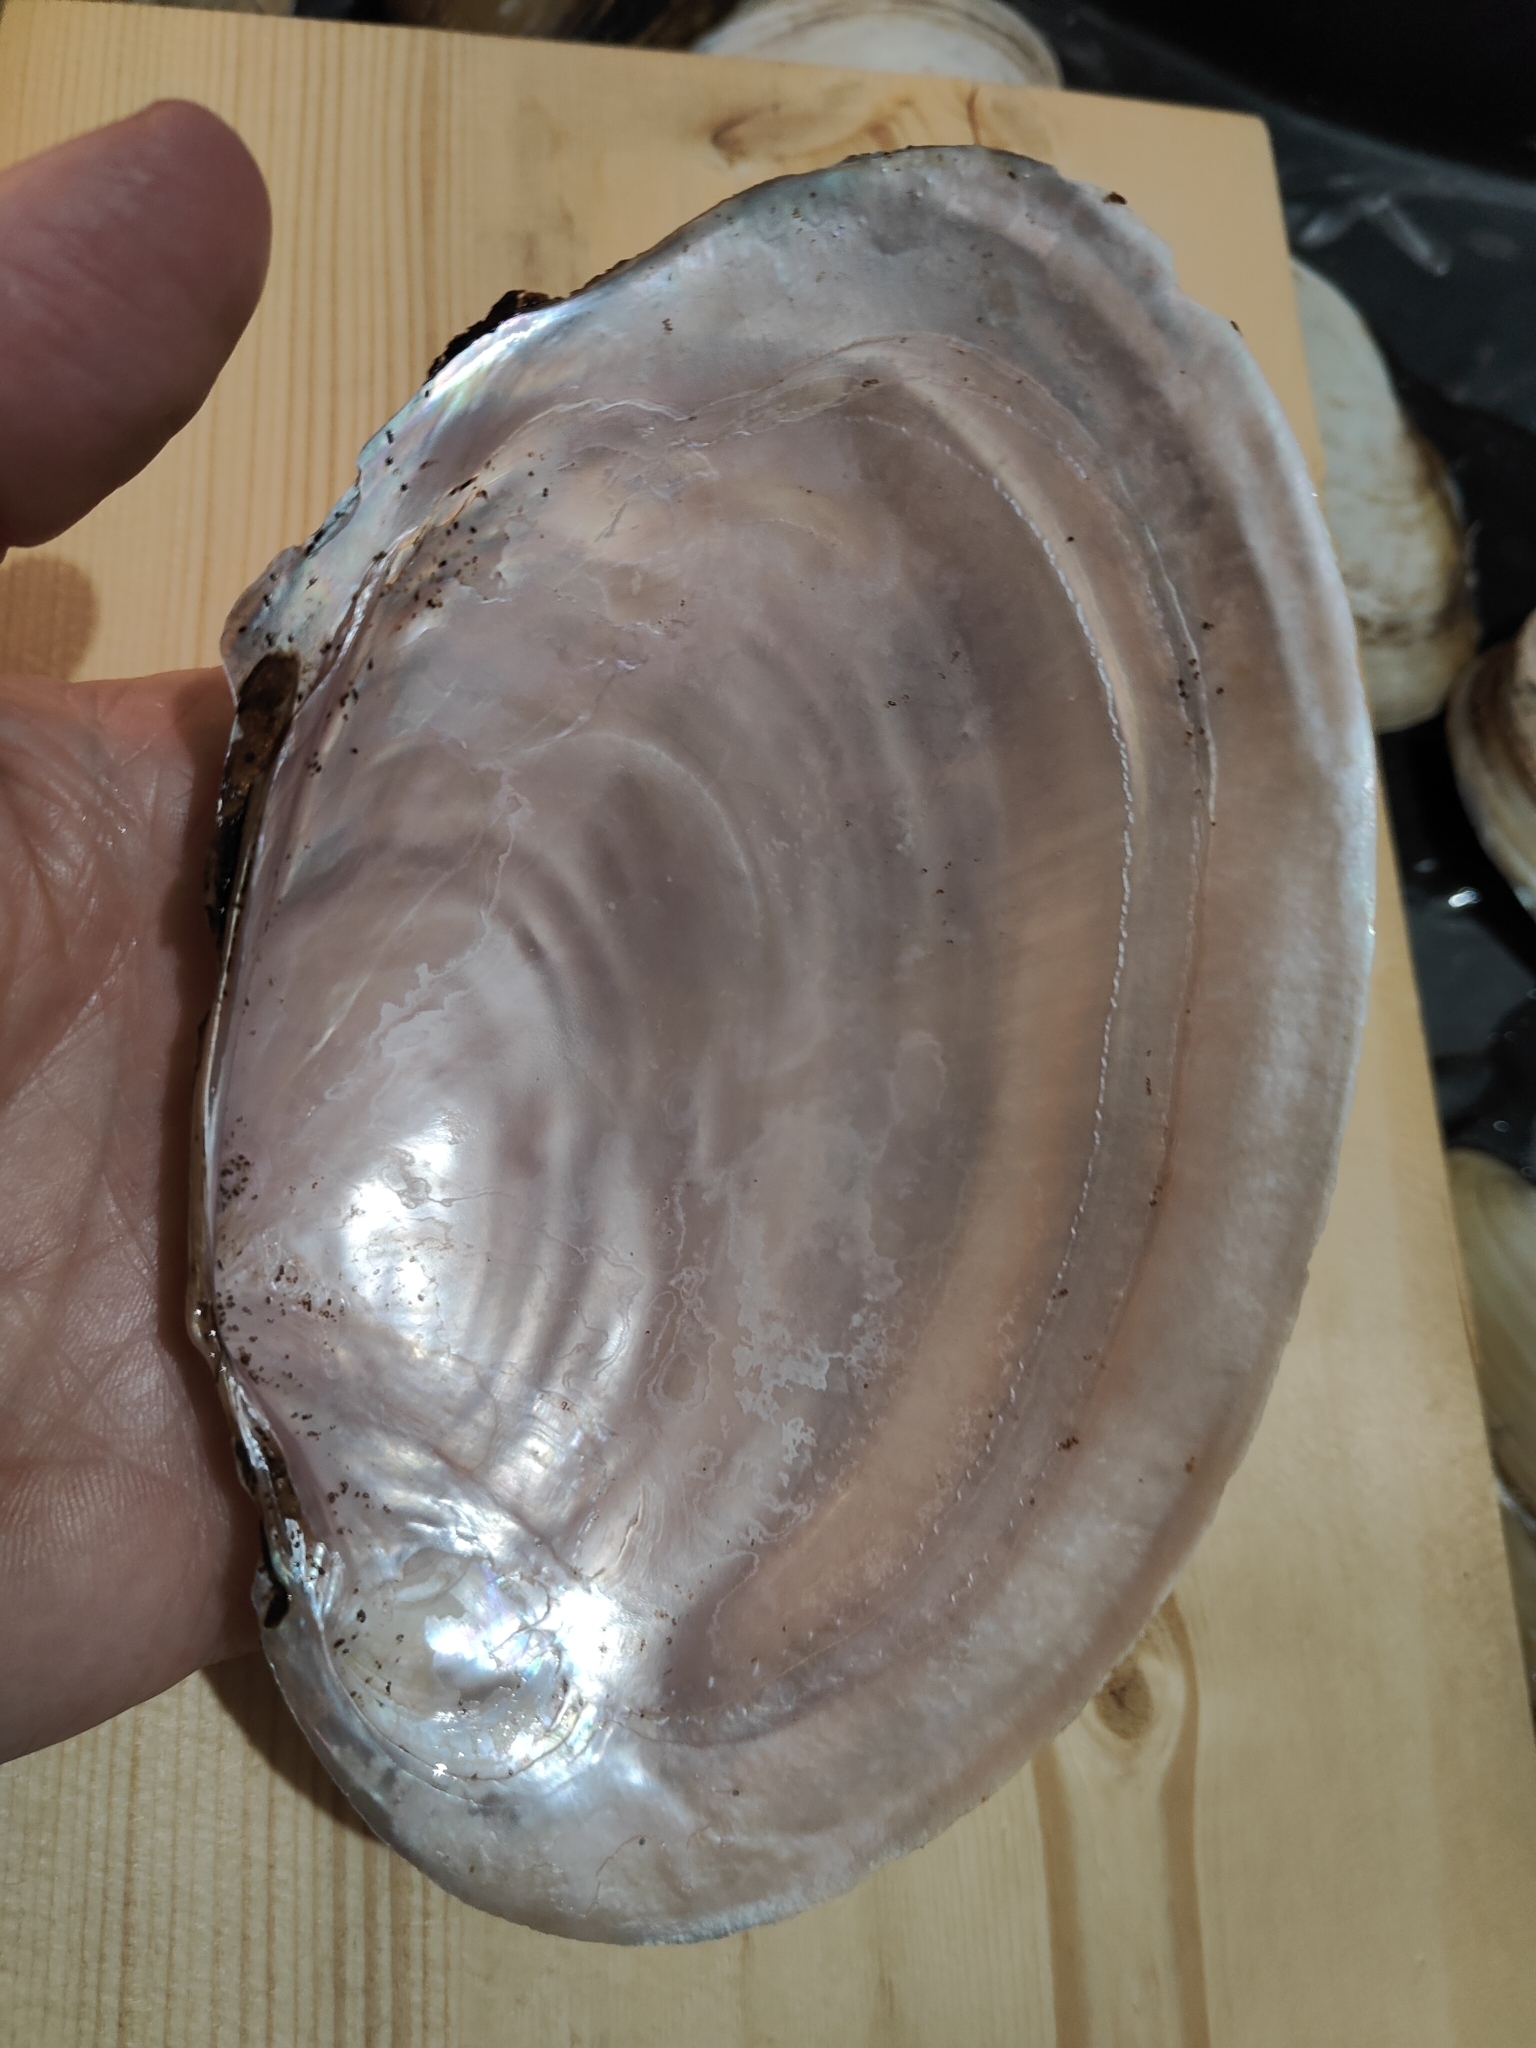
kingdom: Animalia
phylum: Mollusca
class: Bivalvia
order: Unionida
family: Unionidae
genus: Potamilus
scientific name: Potamilus ohiensis
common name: Pink papershell
